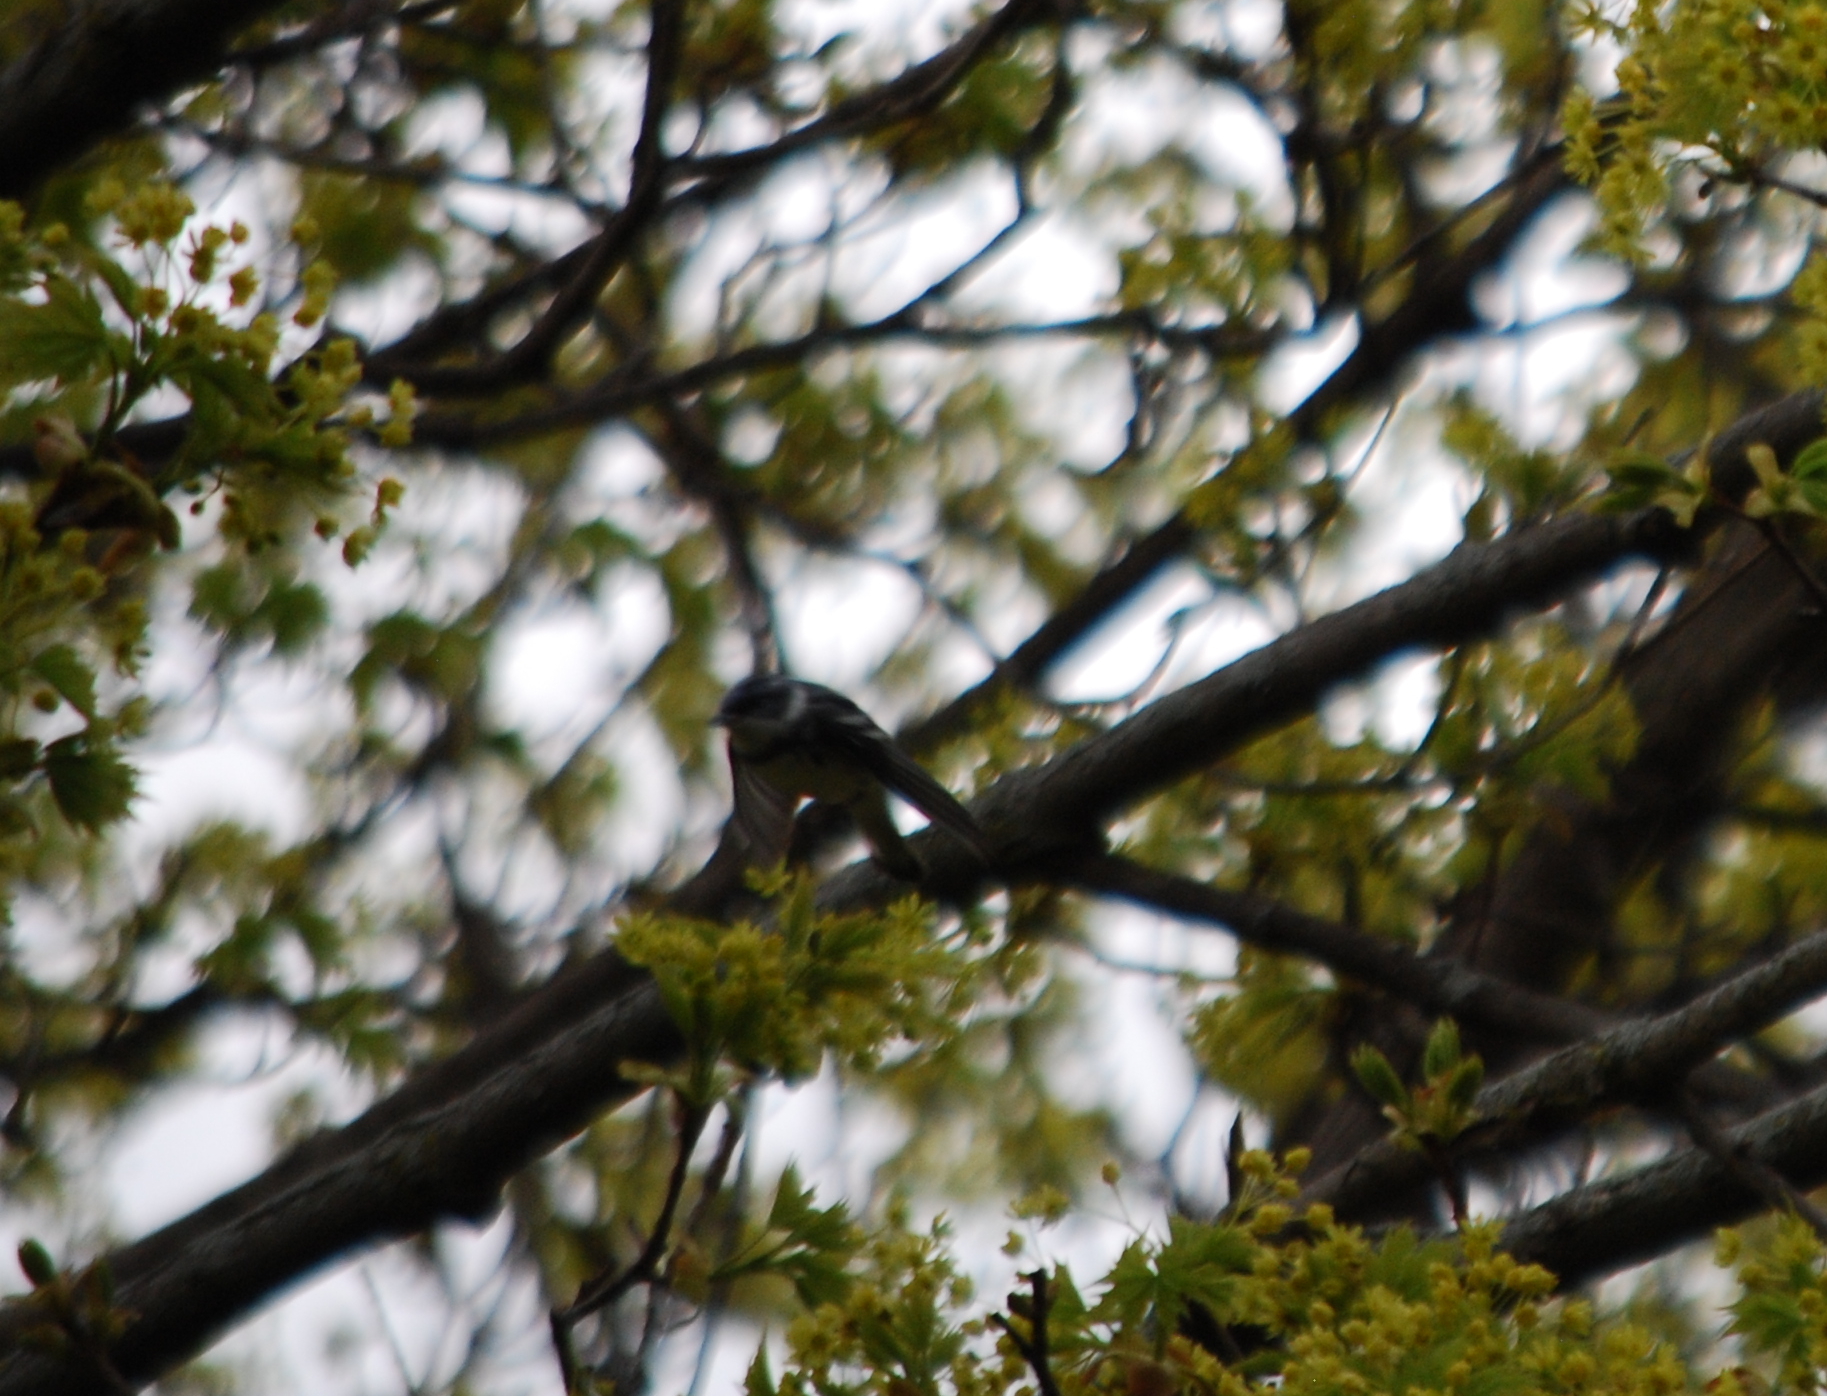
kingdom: Animalia
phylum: Chordata
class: Aves
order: Passeriformes
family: Parulidae
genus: Setophaga
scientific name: Setophaga cerulea
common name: Cerulean warbler
